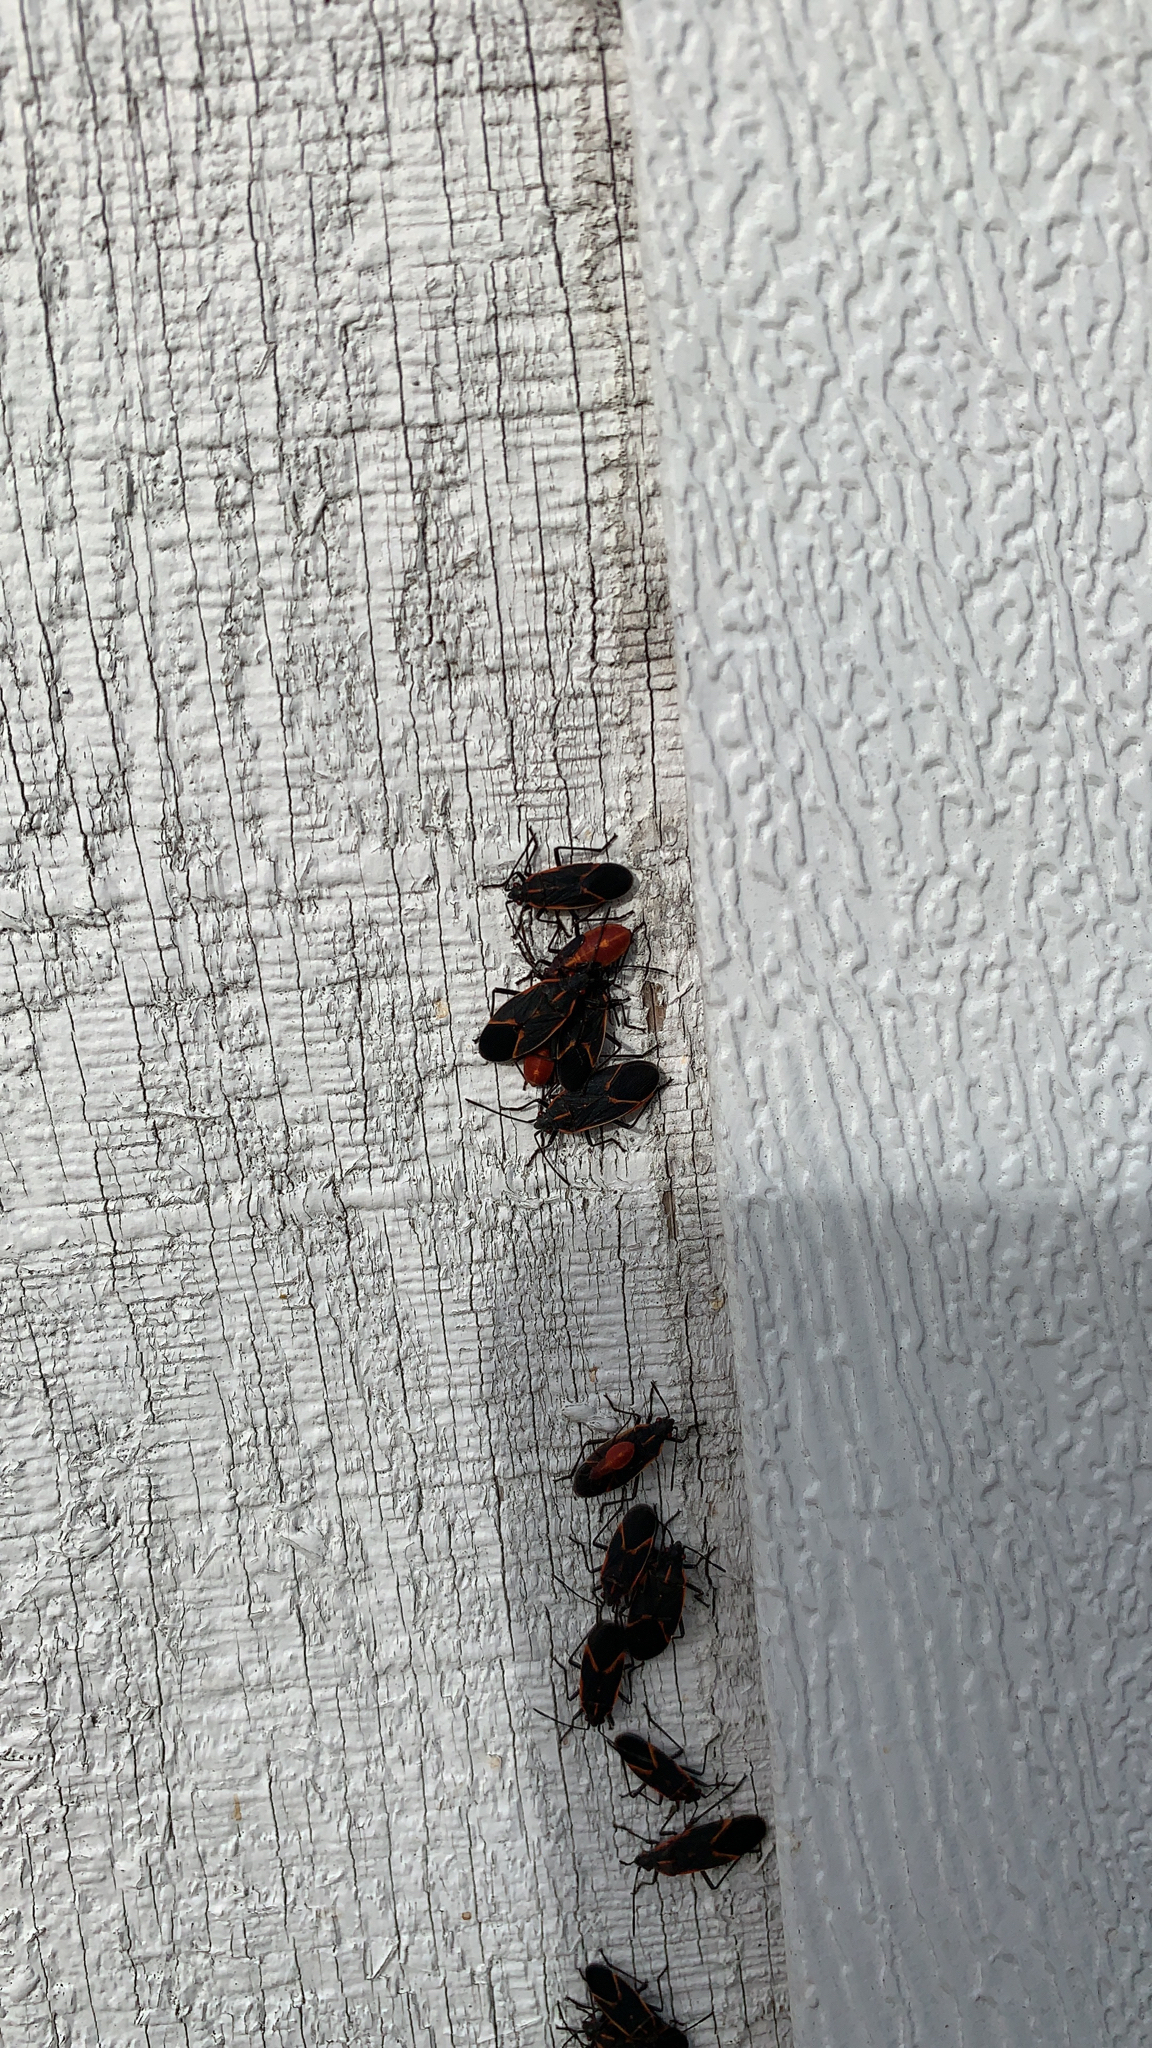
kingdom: Animalia
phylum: Arthropoda
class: Insecta
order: Hemiptera
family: Rhopalidae
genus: Boisea
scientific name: Boisea trivittata
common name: Boxelder bug
